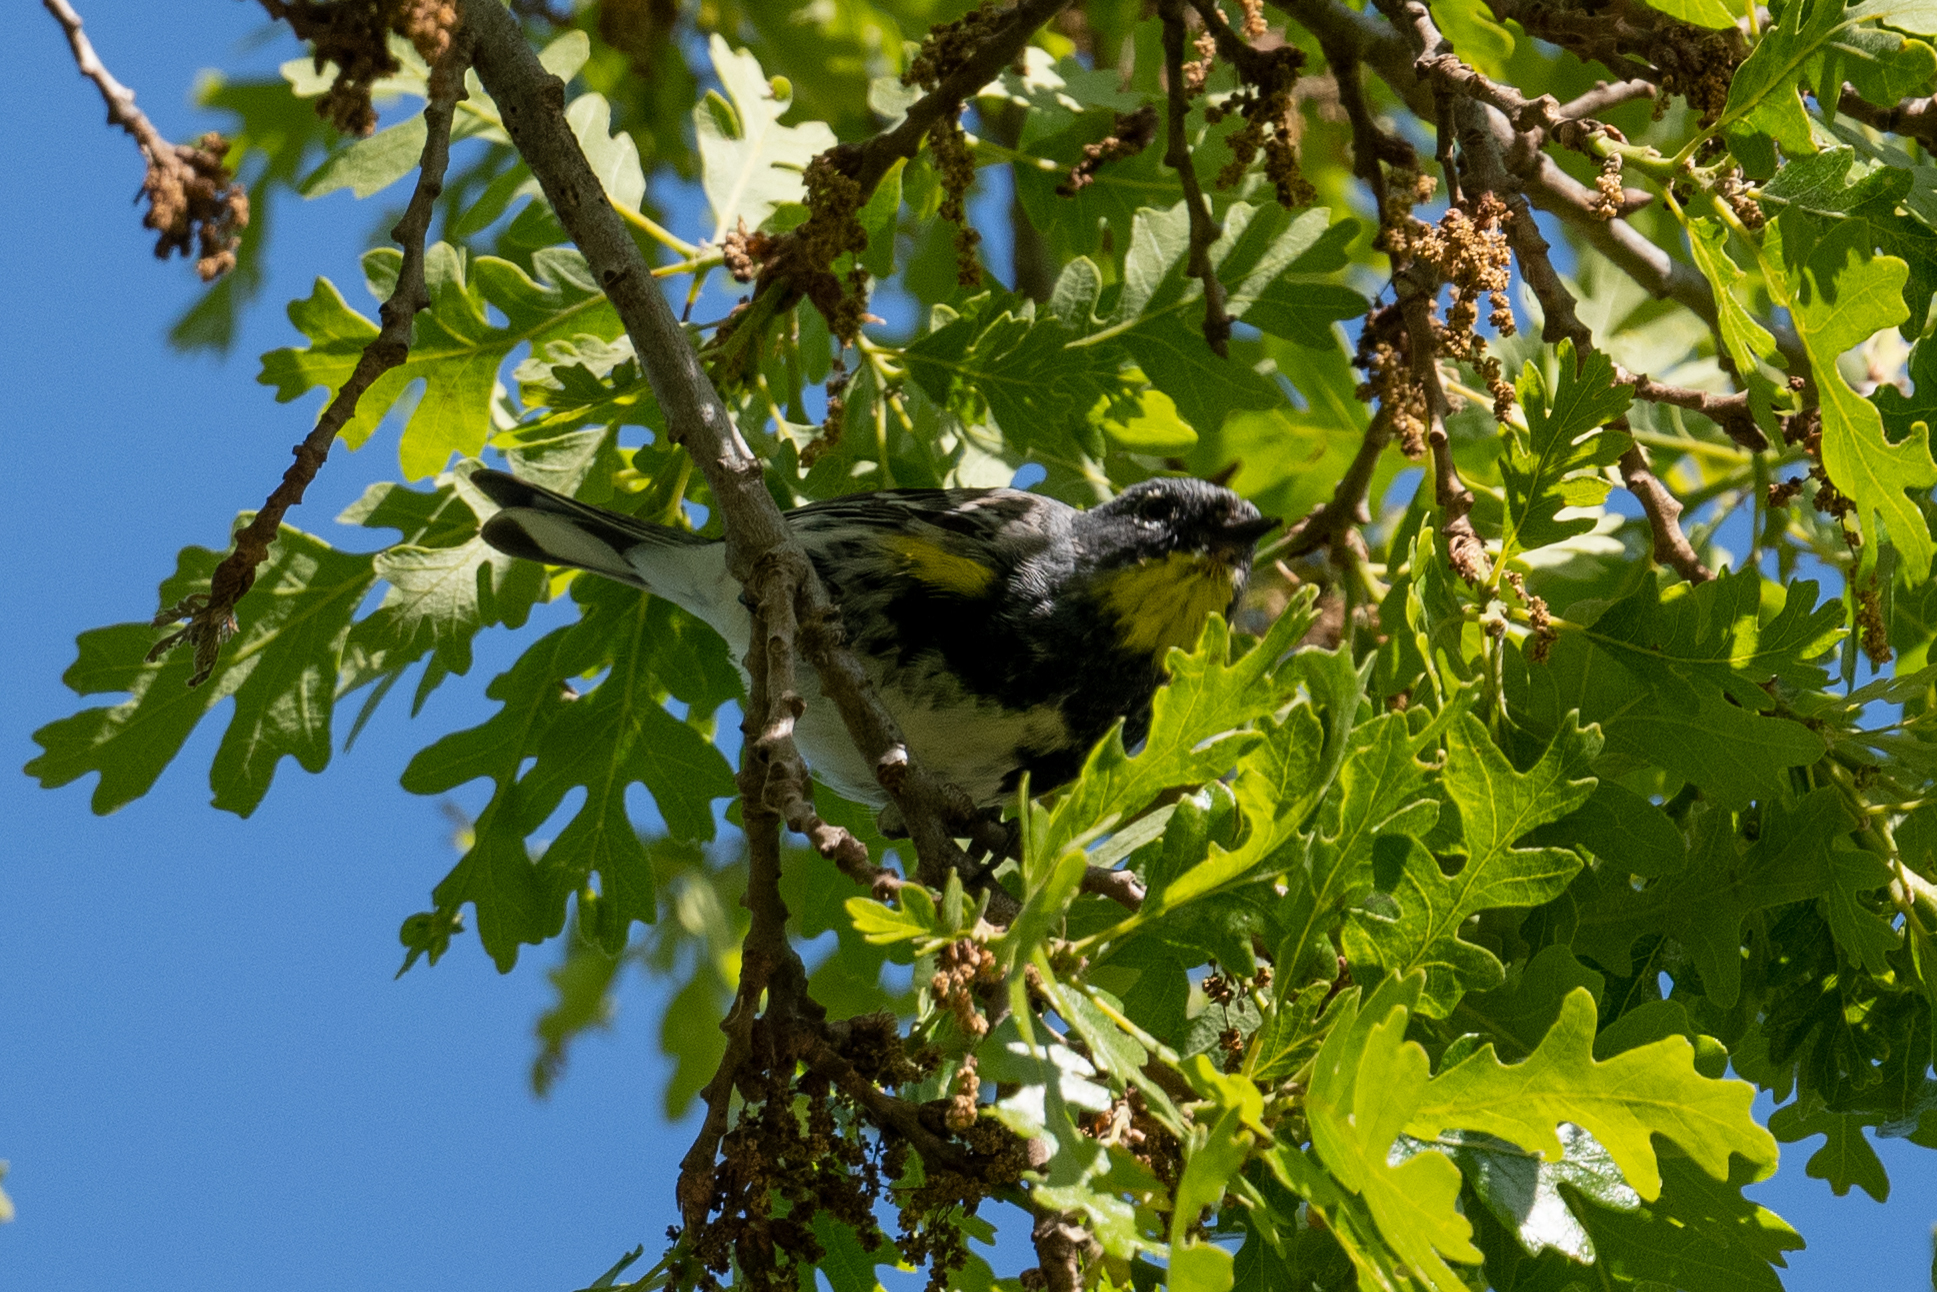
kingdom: Animalia
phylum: Chordata
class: Aves
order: Passeriformes
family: Parulidae
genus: Setophaga
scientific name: Setophaga coronata
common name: Myrtle warbler
